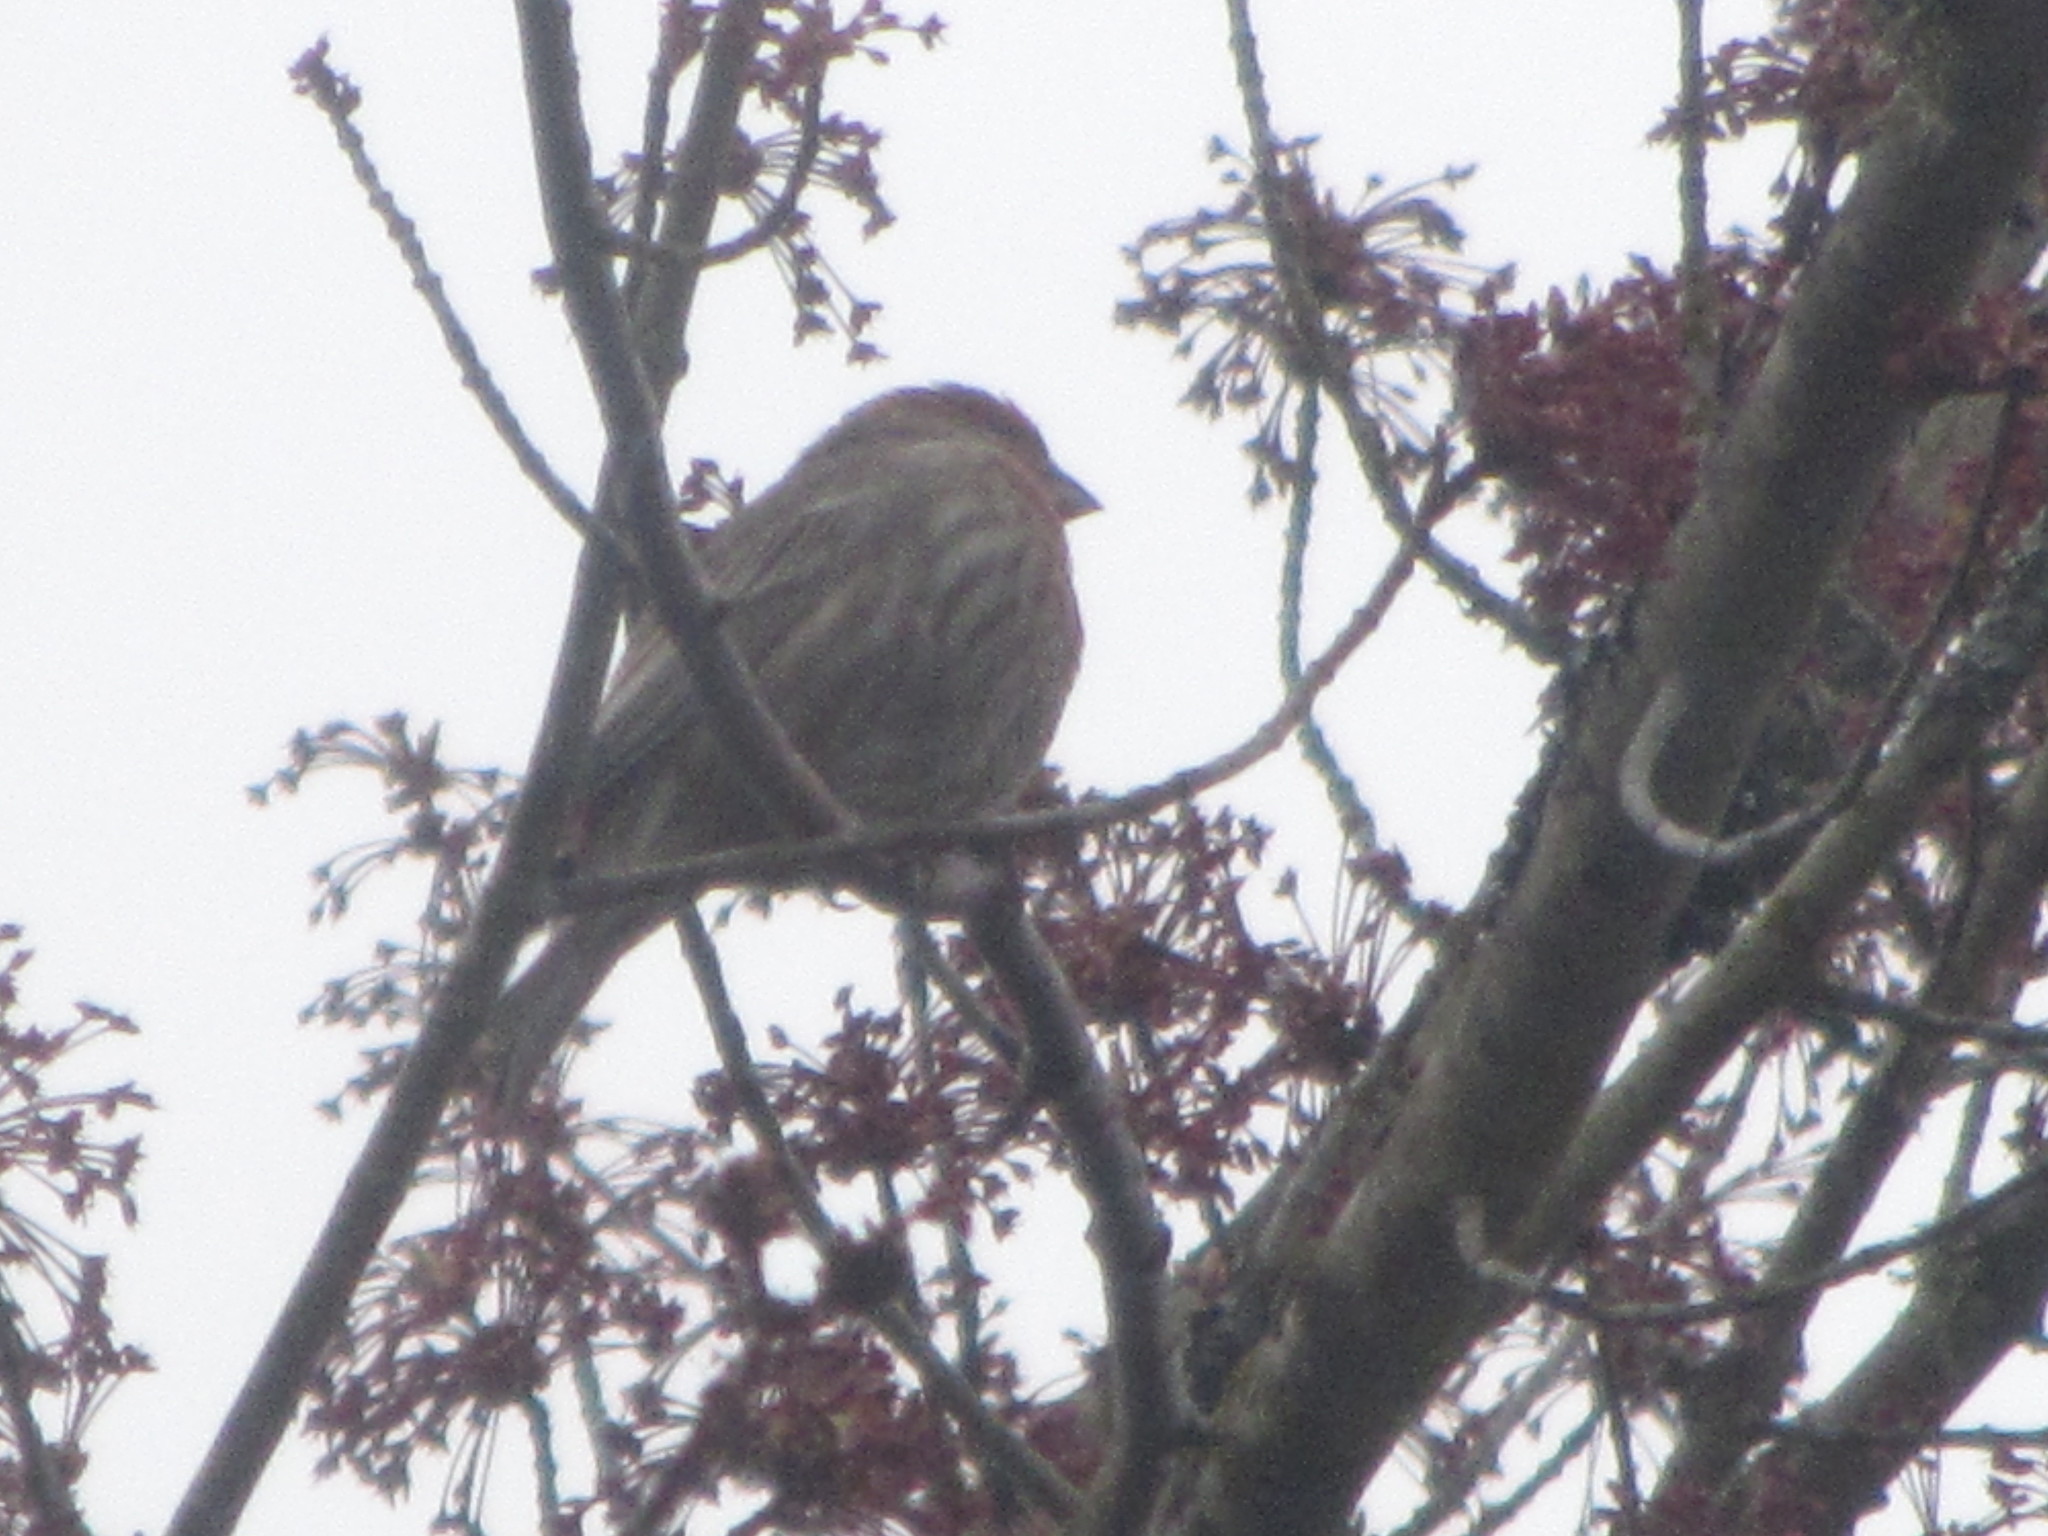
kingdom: Animalia
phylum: Chordata
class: Aves
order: Passeriformes
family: Fringillidae
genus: Haemorhous
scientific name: Haemorhous mexicanus
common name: House finch
